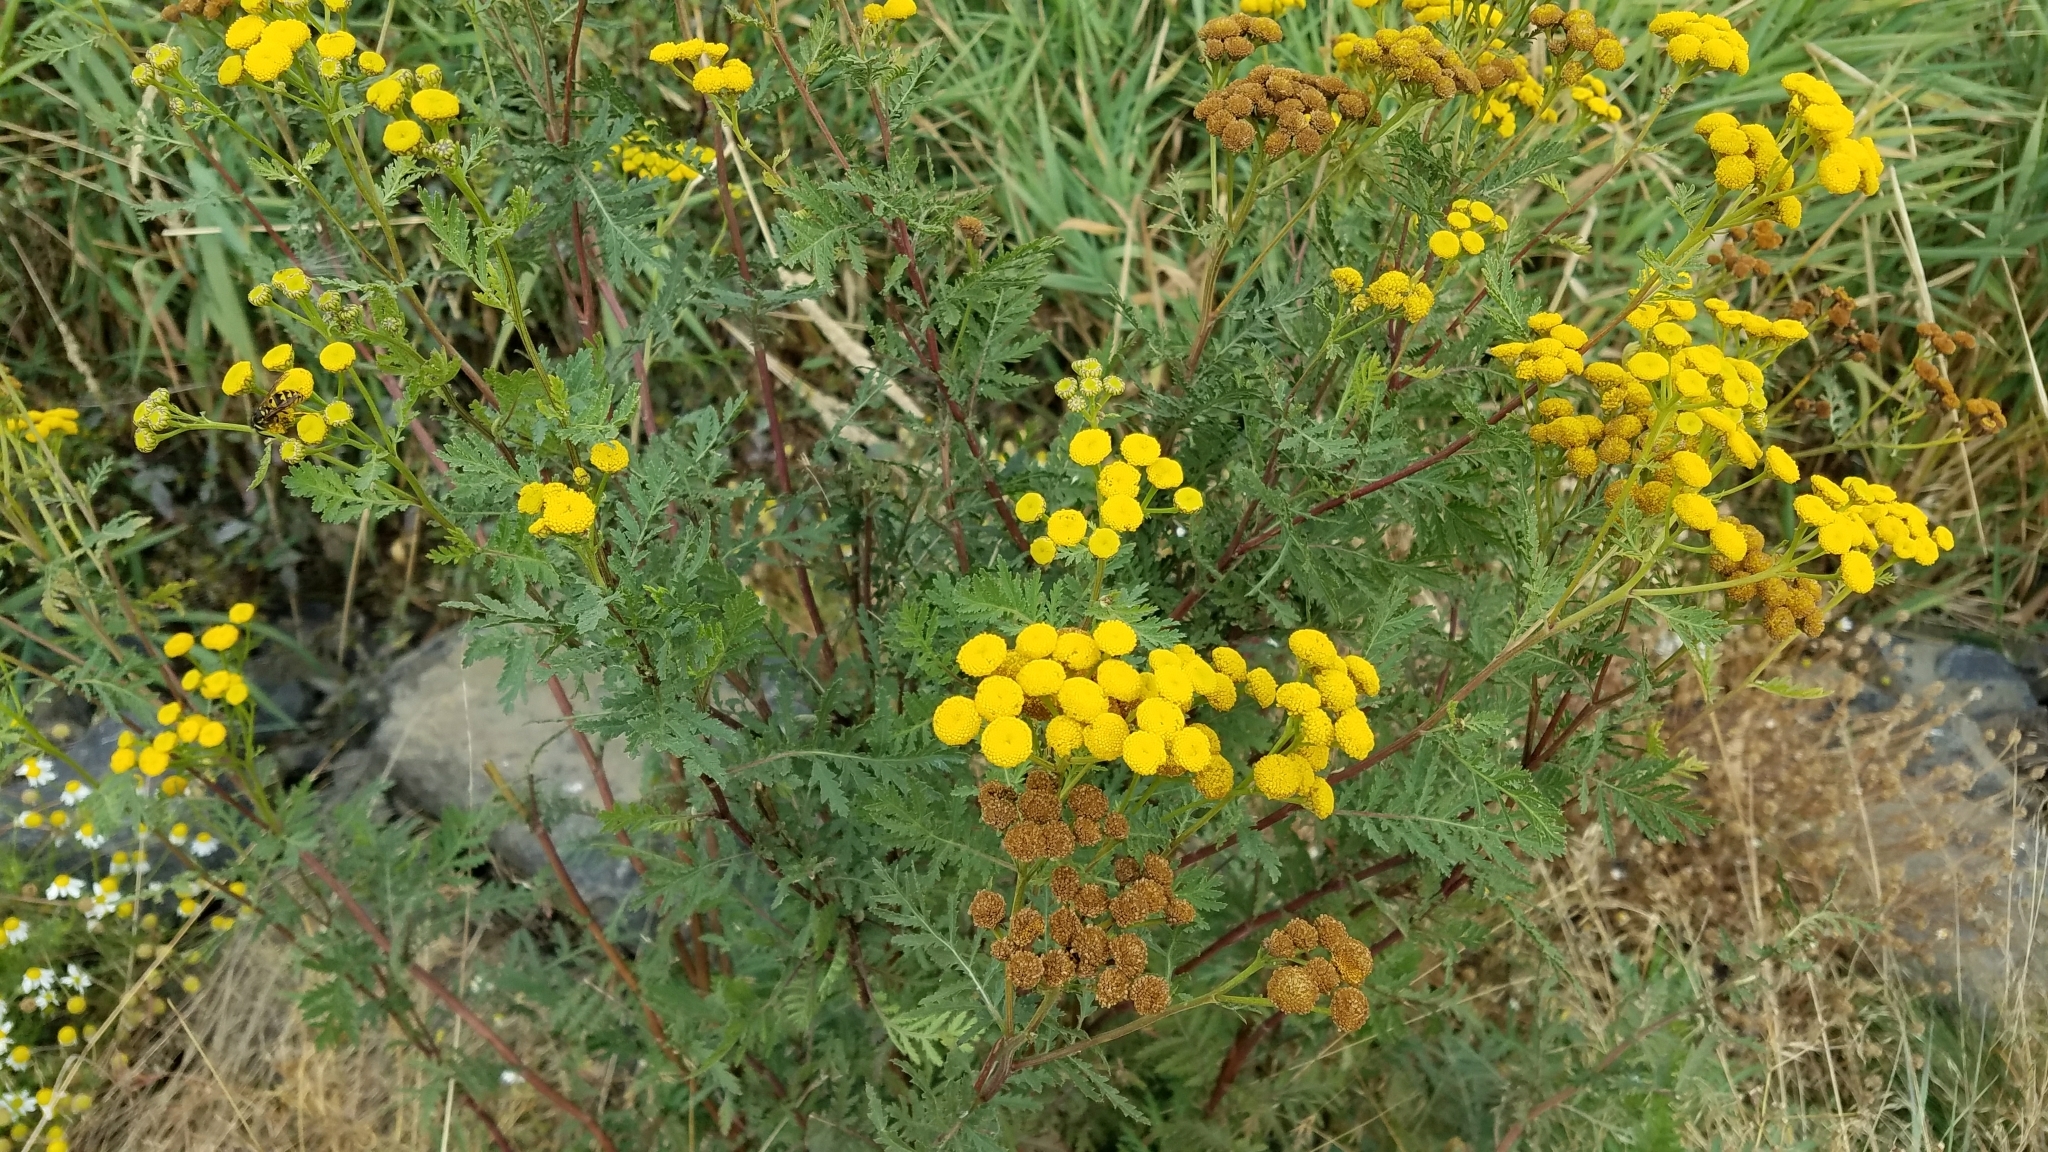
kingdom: Plantae
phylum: Tracheophyta
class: Magnoliopsida
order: Asterales
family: Asteraceae
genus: Tanacetum
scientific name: Tanacetum vulgare
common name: Common tansy
